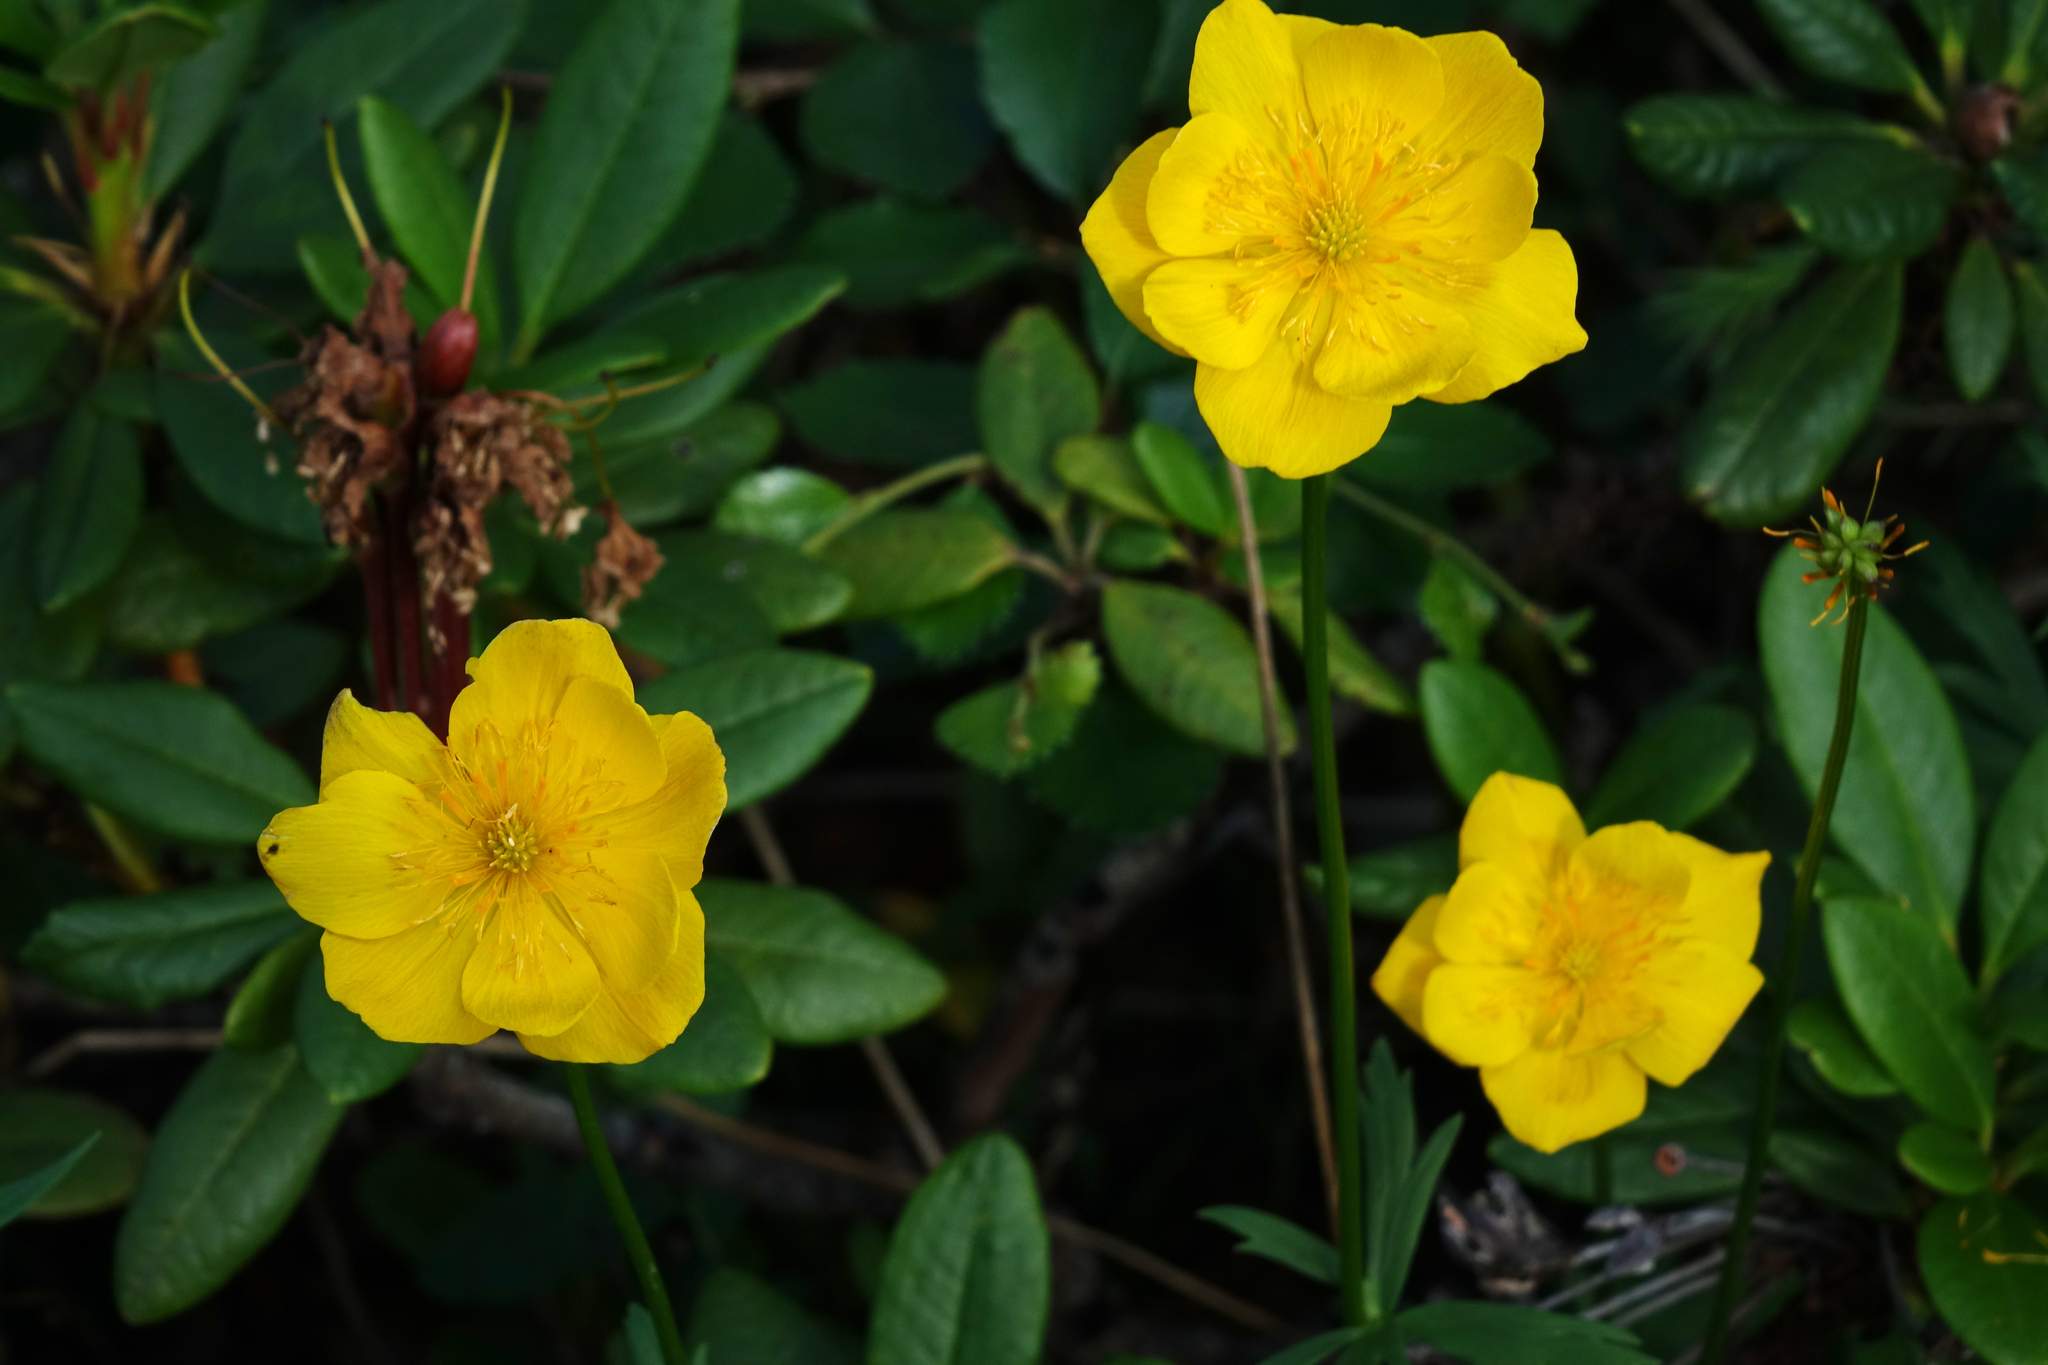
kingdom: Plantae
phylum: Tracheophyta
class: Magnoliopsida
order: Ranunculales
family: Ranunculaceae
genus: Trollius
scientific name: Trollius membranostylis
